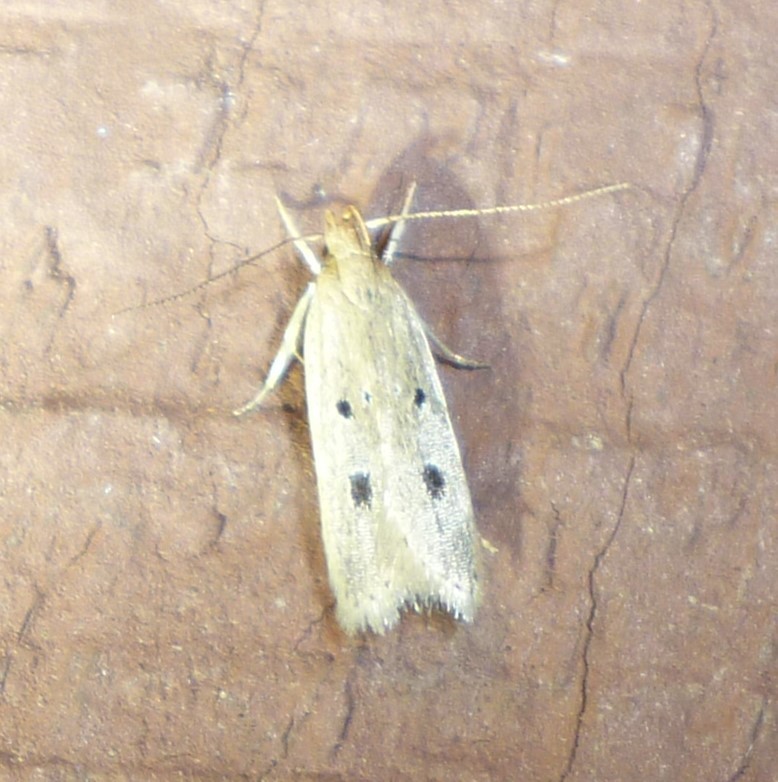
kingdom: Animalia
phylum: Arthropoda
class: Insecta
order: Lepidoptera
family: Gelechiidae
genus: Helcystogramma
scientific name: Helcystogramma melanocarpa
